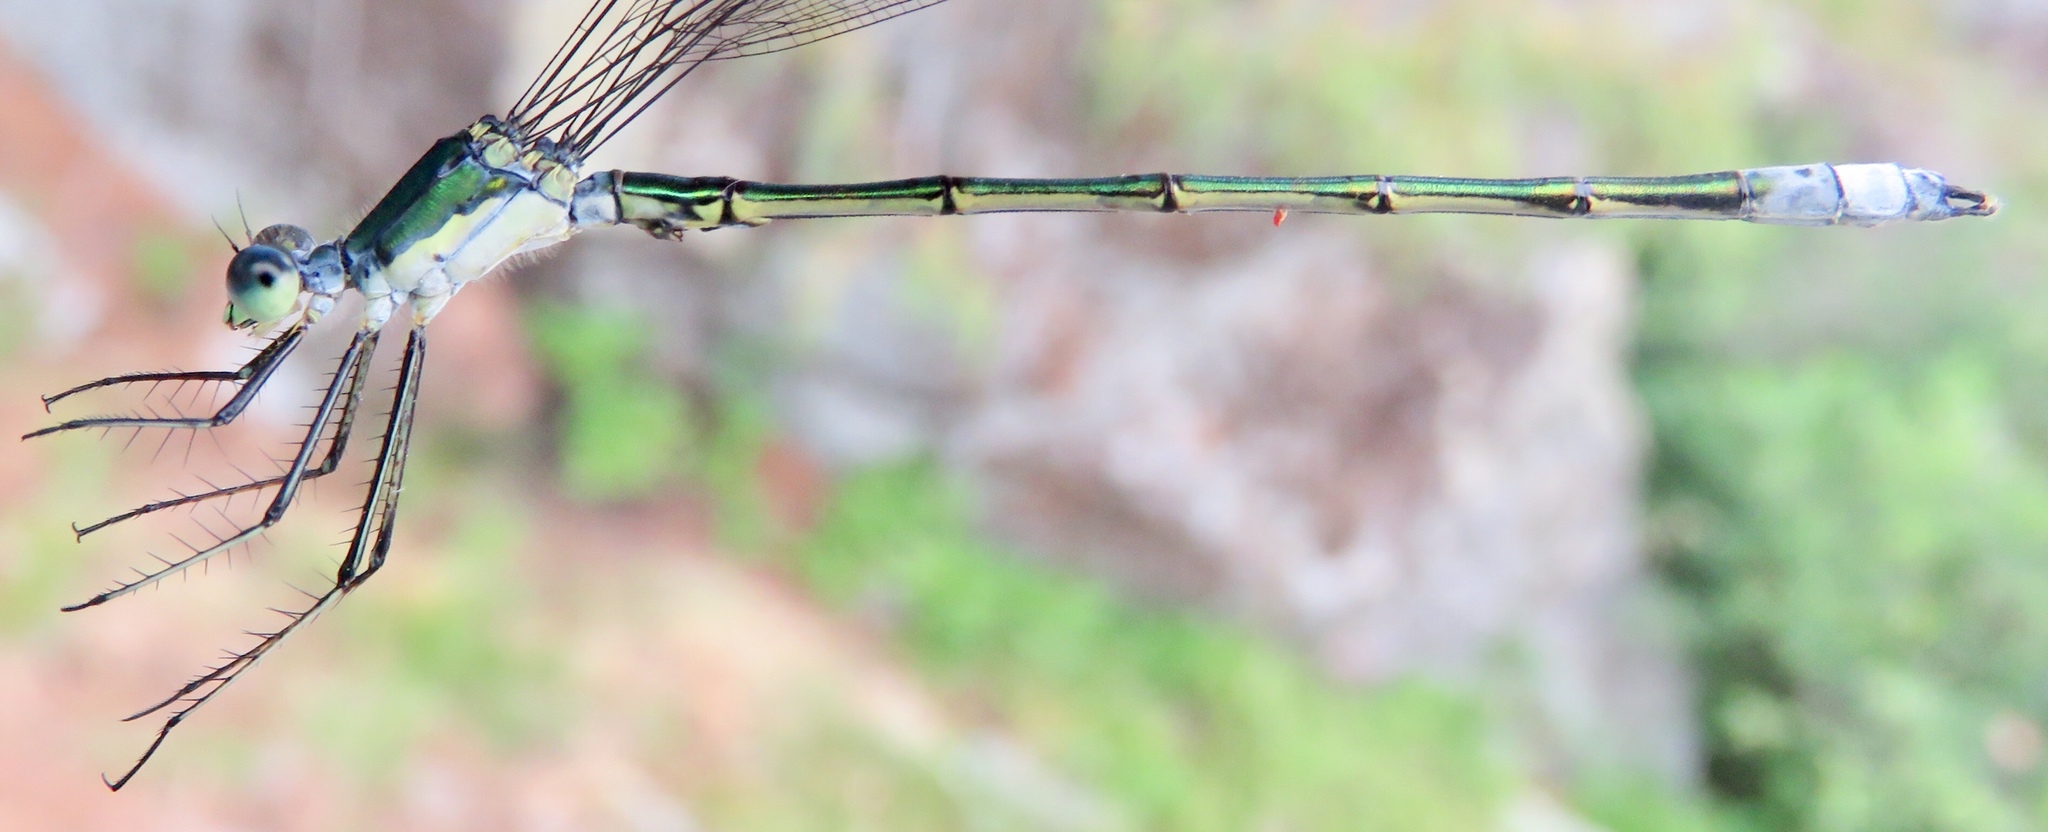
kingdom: Animalia
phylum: Arthropoda
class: Insecta
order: Odonata
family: Lestidae
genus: Lestes
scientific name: Lestes inaequalis
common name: Elegant spreadwing
